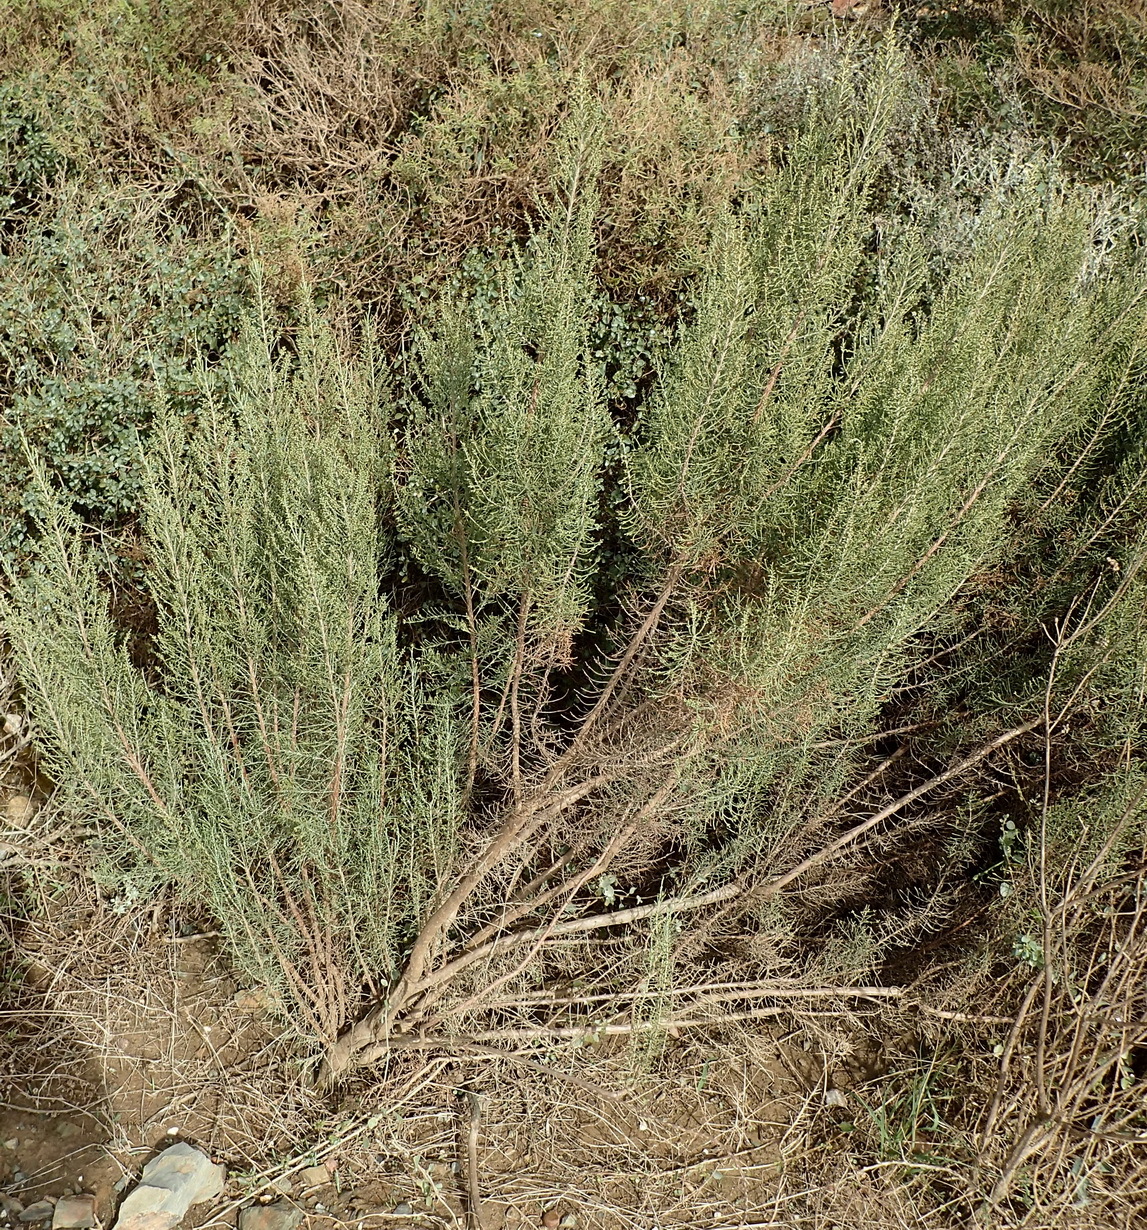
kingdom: Plantae
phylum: Tracheophyta
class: Magnoliopsida
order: Asterales
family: Asteraceae
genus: Dicerothamnus
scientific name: Dicerothamnus rhinocerotis
